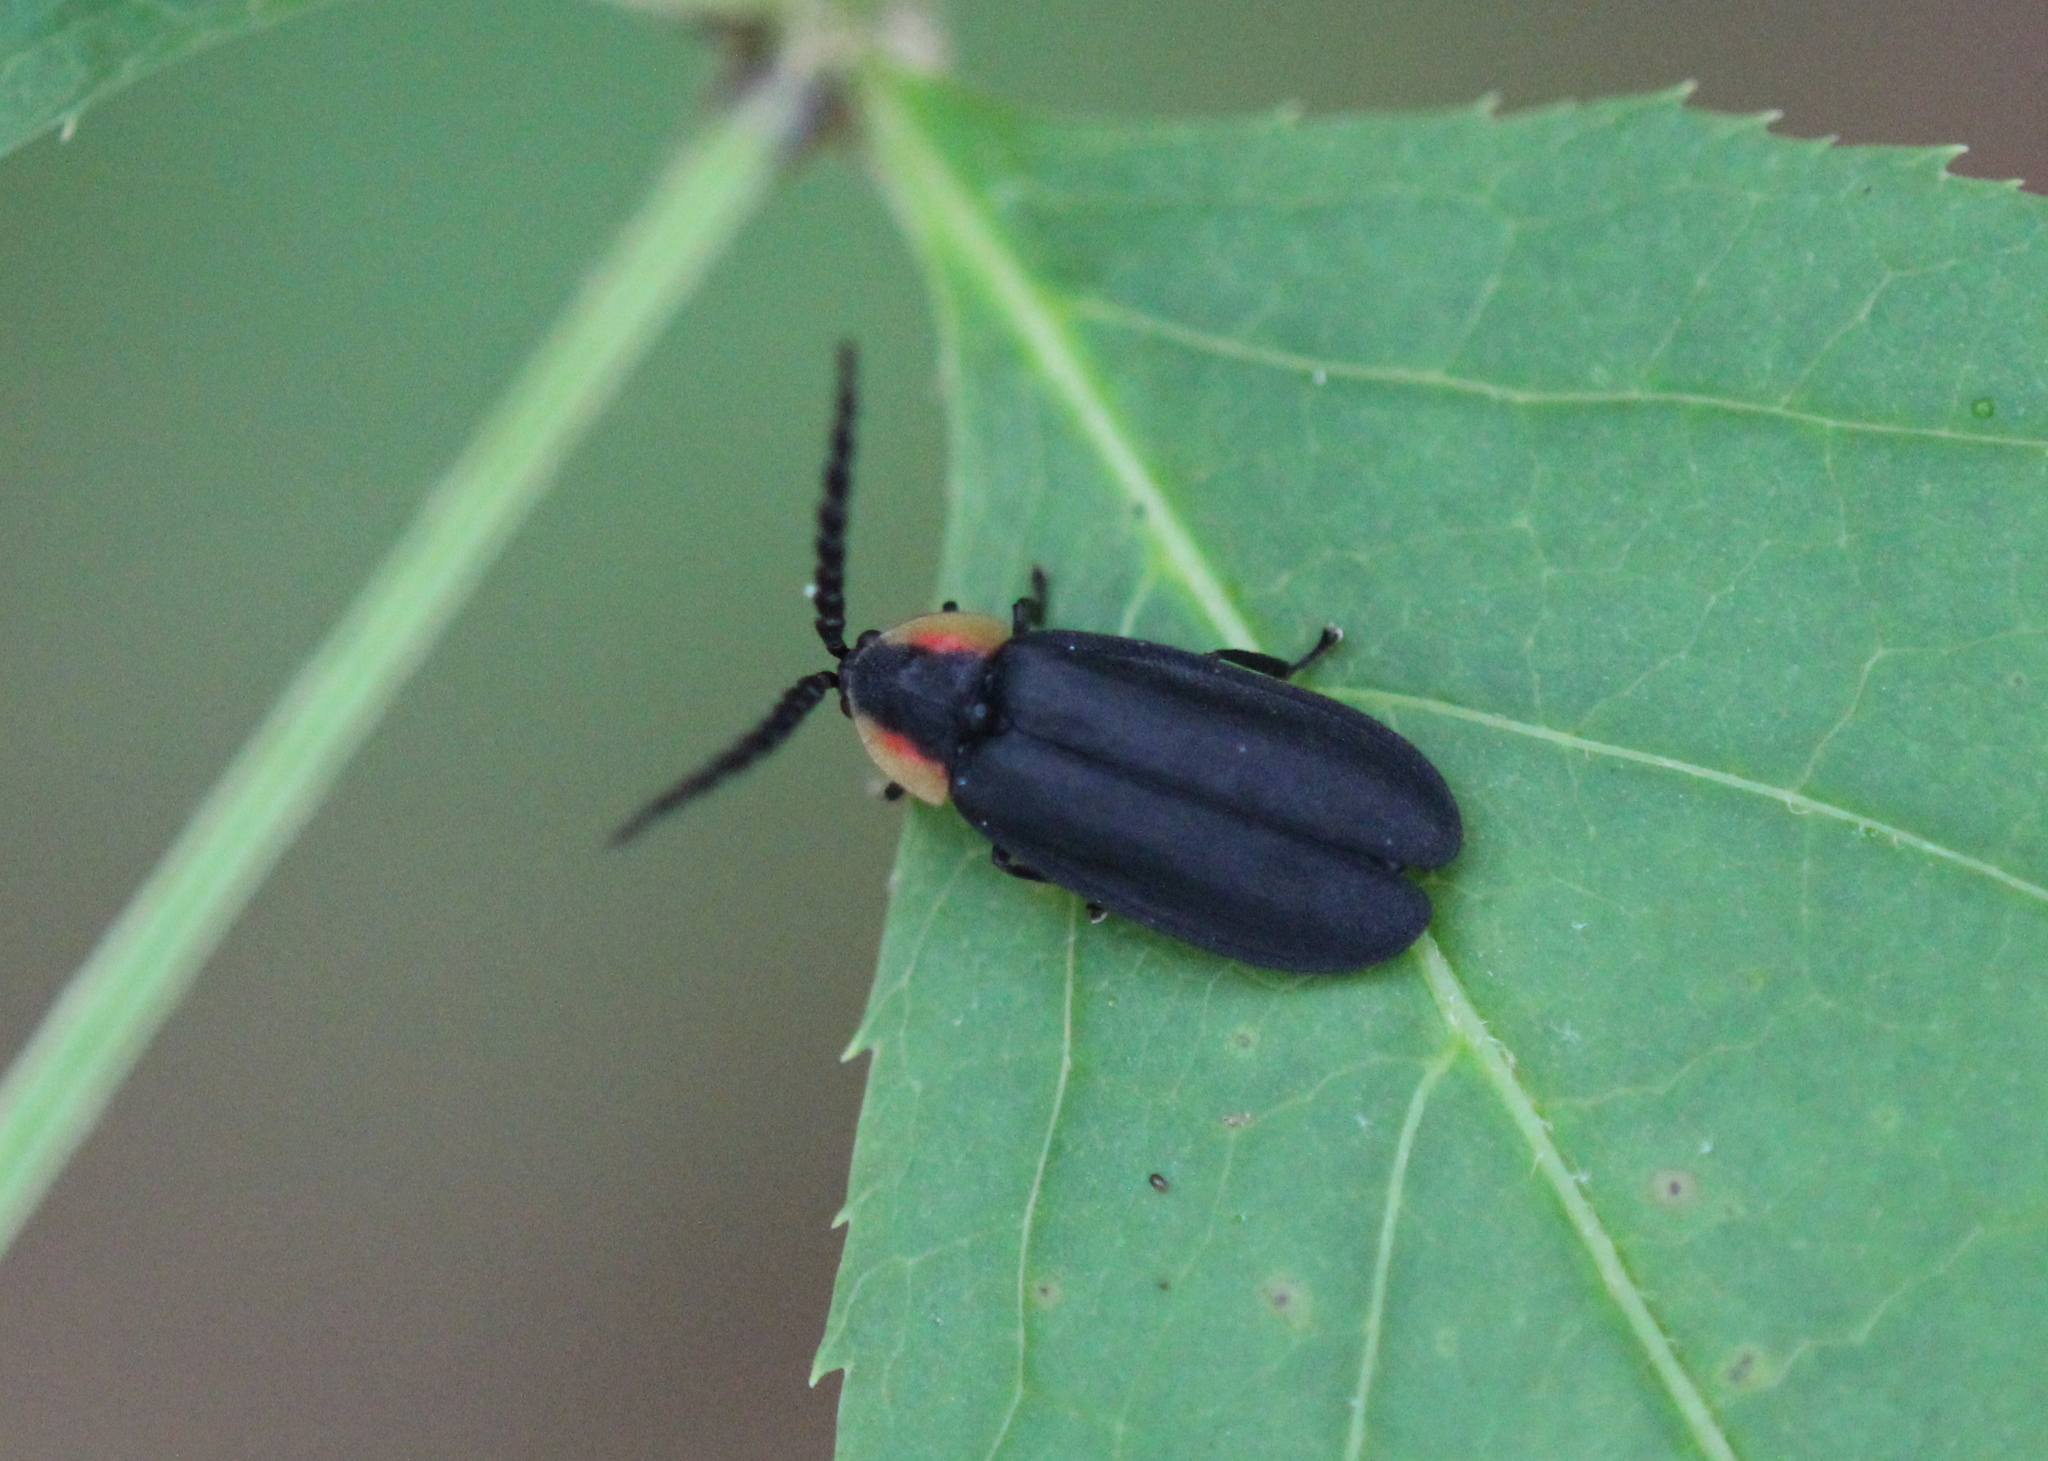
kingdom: Animalia
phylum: Arthropoda
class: Insecta
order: Coleoptera
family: Lampyridae
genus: Lucidota
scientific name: Lucidota atra
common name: Black firefly
